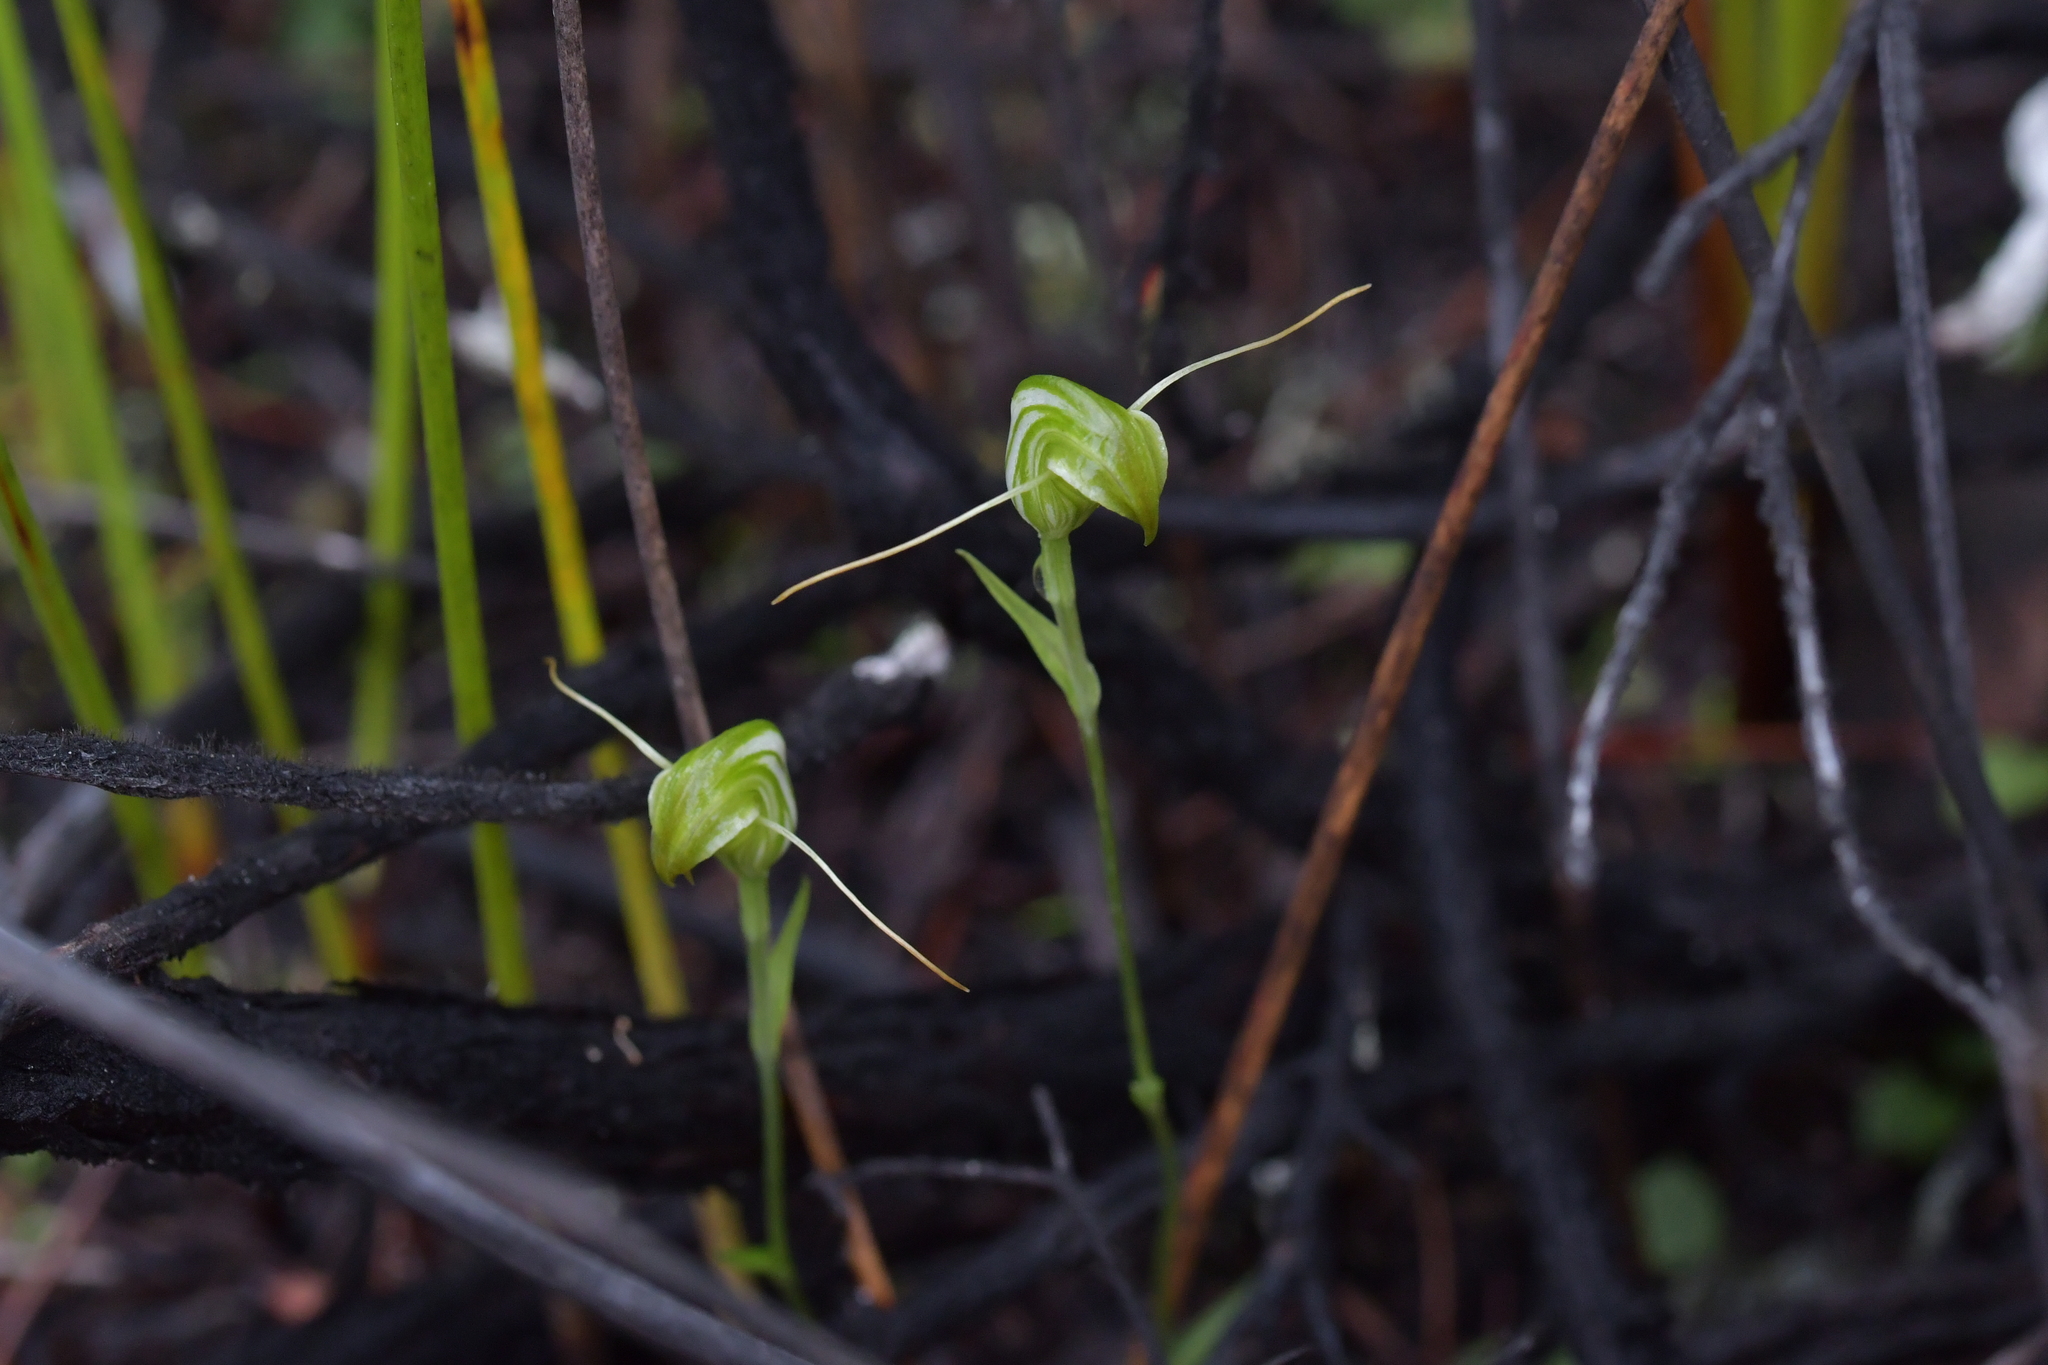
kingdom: Plantae
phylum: Tracheophyta
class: Liliopsida
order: Asparagales
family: Orchidaceae
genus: Pterostylis
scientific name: Pterostylis trullifolia
